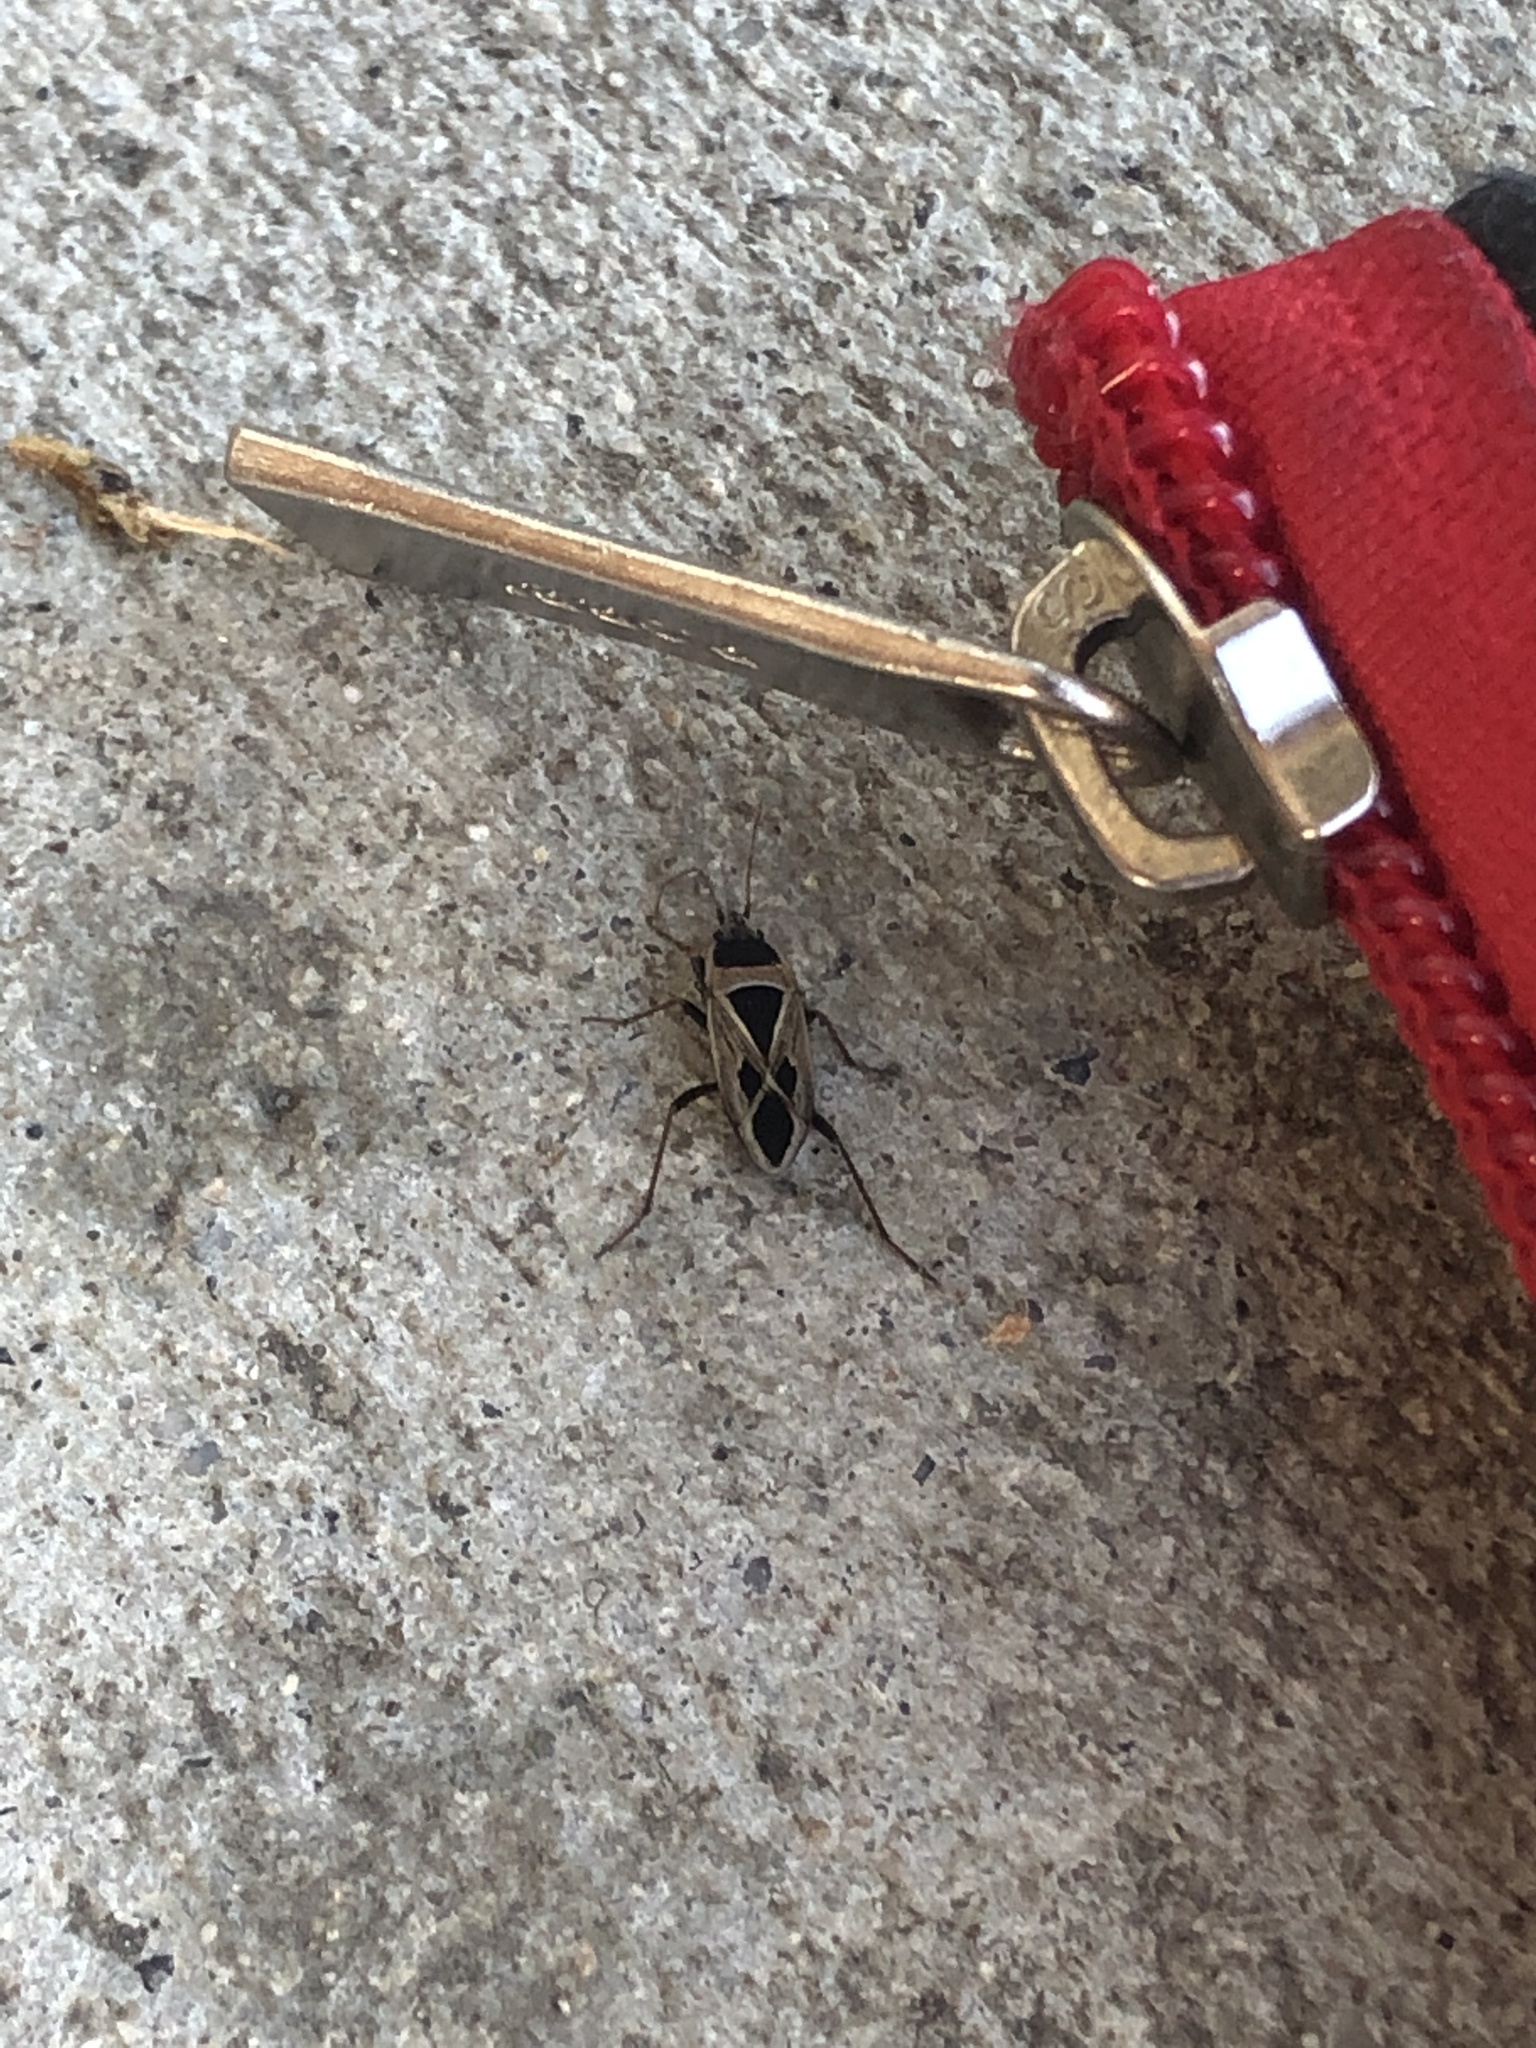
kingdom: Animalia
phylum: Arthropoda
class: Insecta
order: Hemiptera
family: Rhyparochromidae
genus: Xanthochilus
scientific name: Xanthochilus saturnius
